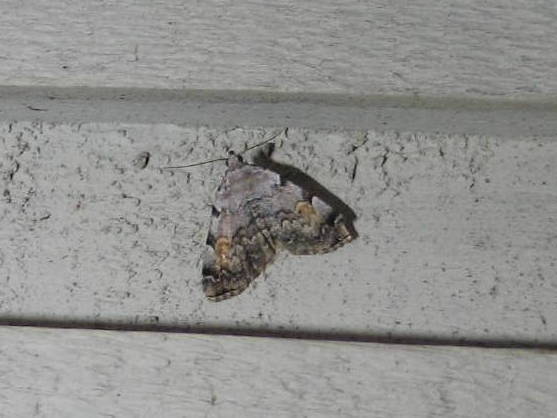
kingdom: Animalia
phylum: Arthropoda
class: Insecta
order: Lepidoptera
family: Erebidae
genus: Idia
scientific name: Idia americalis
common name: American idia moth
